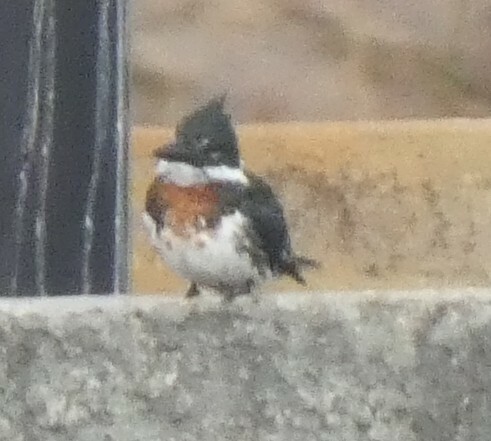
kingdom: Animalia
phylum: Chordata
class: Aves
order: Coraciiformes
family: Alcedinidae
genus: Chloroceryle
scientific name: Chloroceryle amazona
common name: Amazon kingfisher
